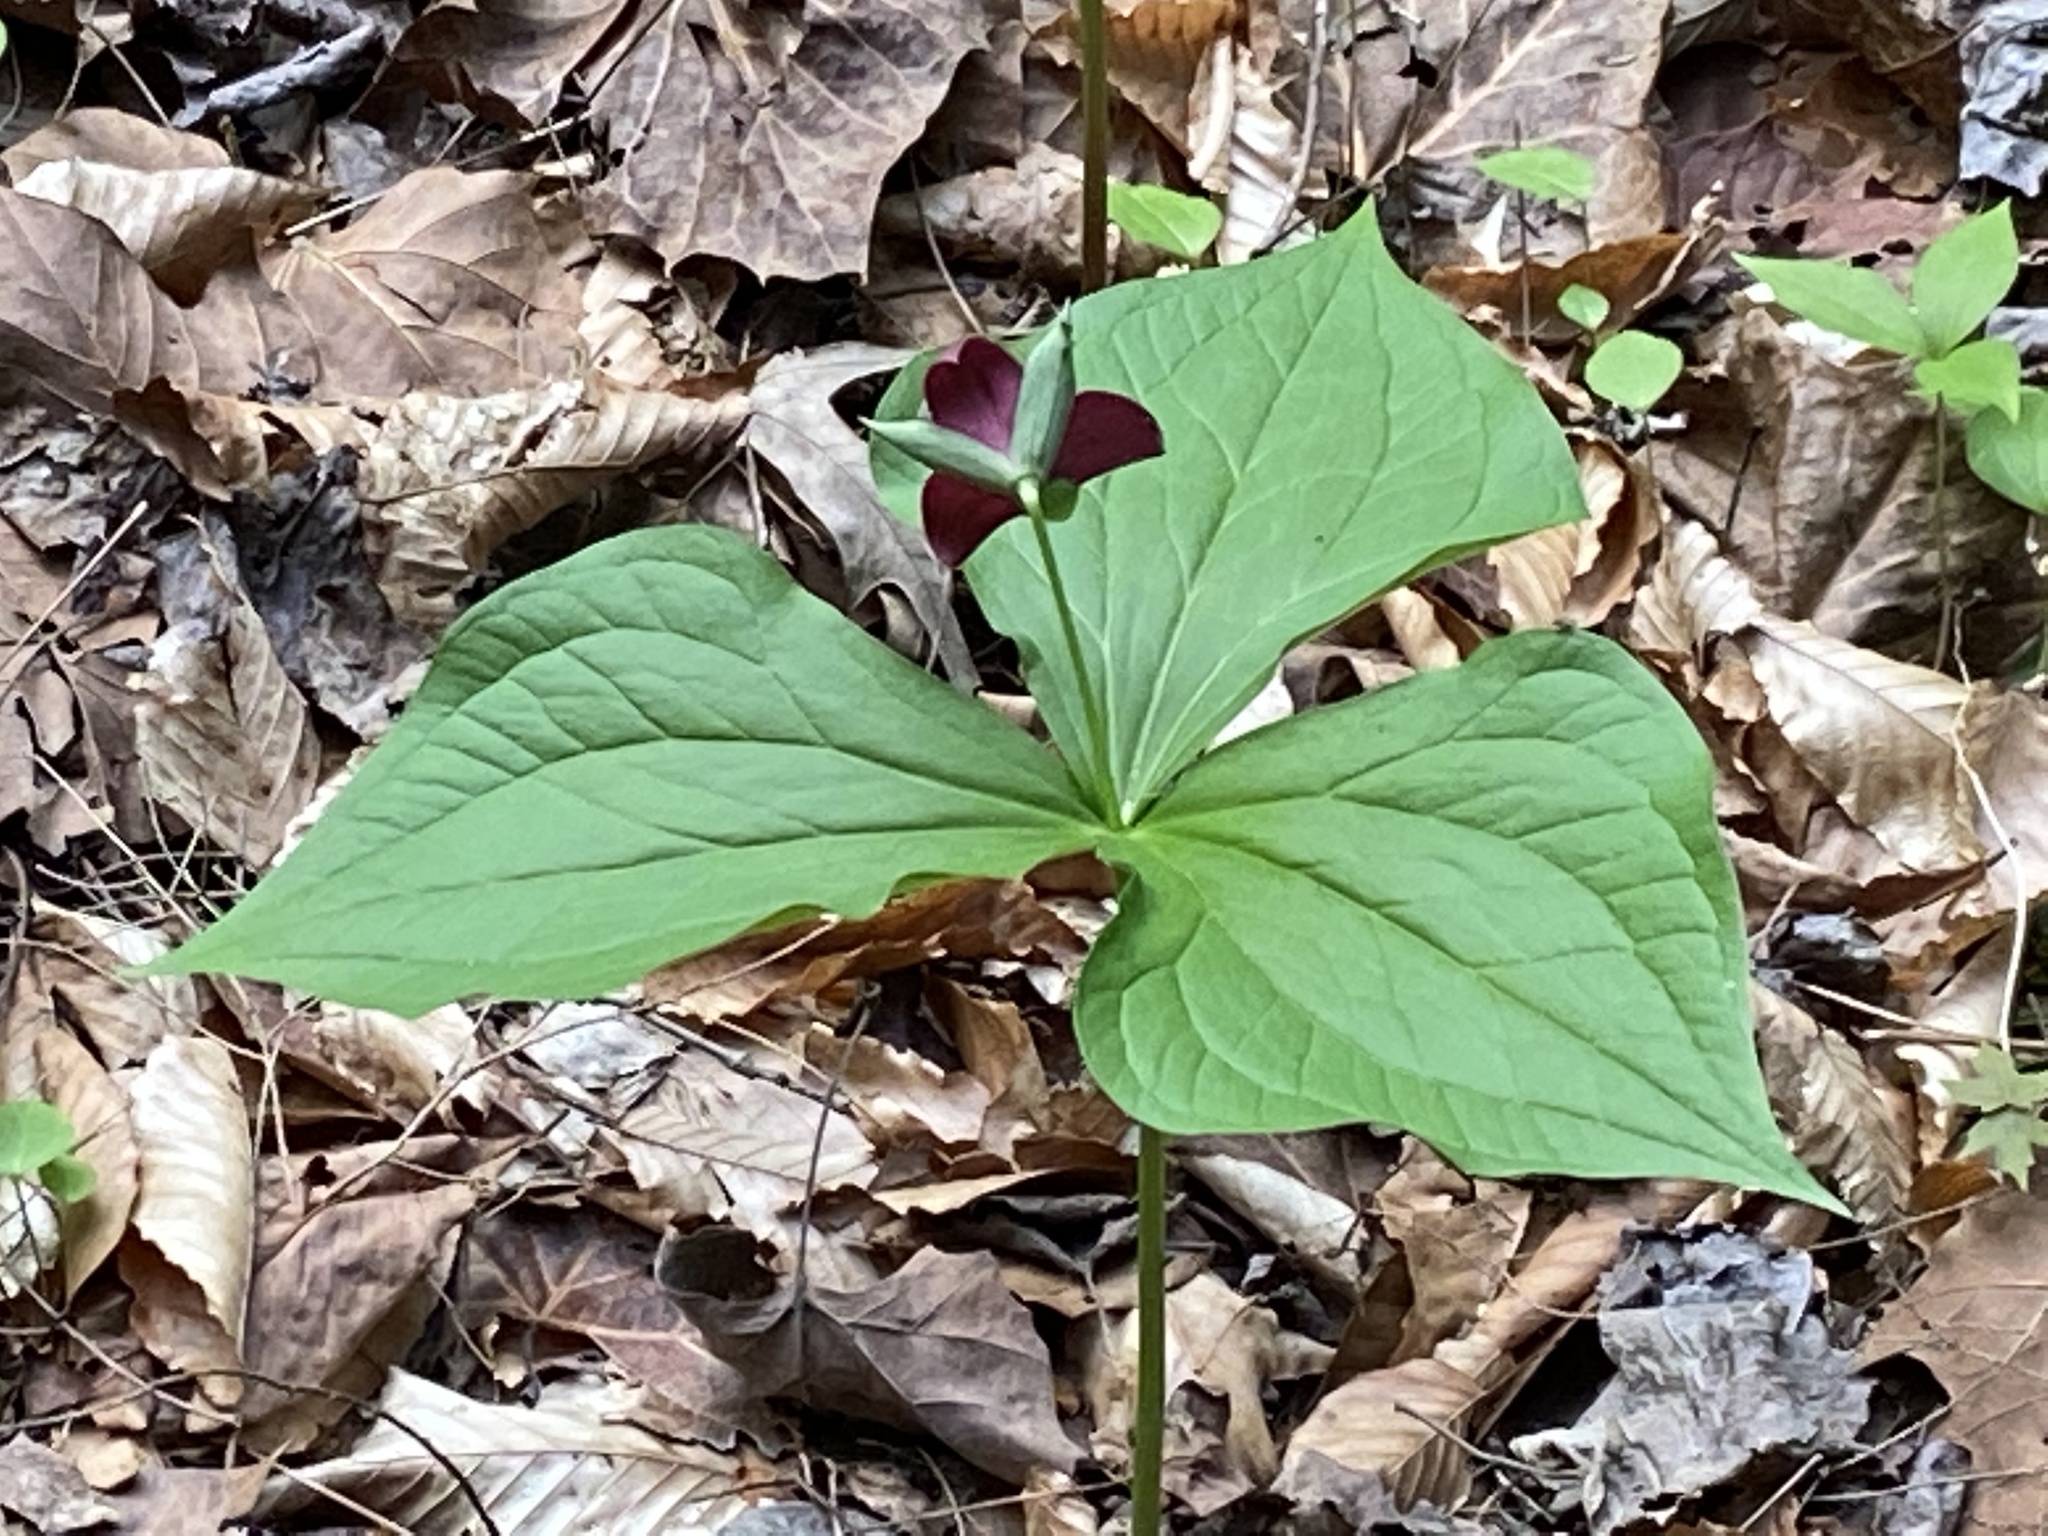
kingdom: Plantae
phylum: Tracheophyta
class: Liliopsida
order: Liliales
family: Melanthiaceae
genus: Trillium
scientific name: Trillium sulcatum
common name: Barksdale trillium
